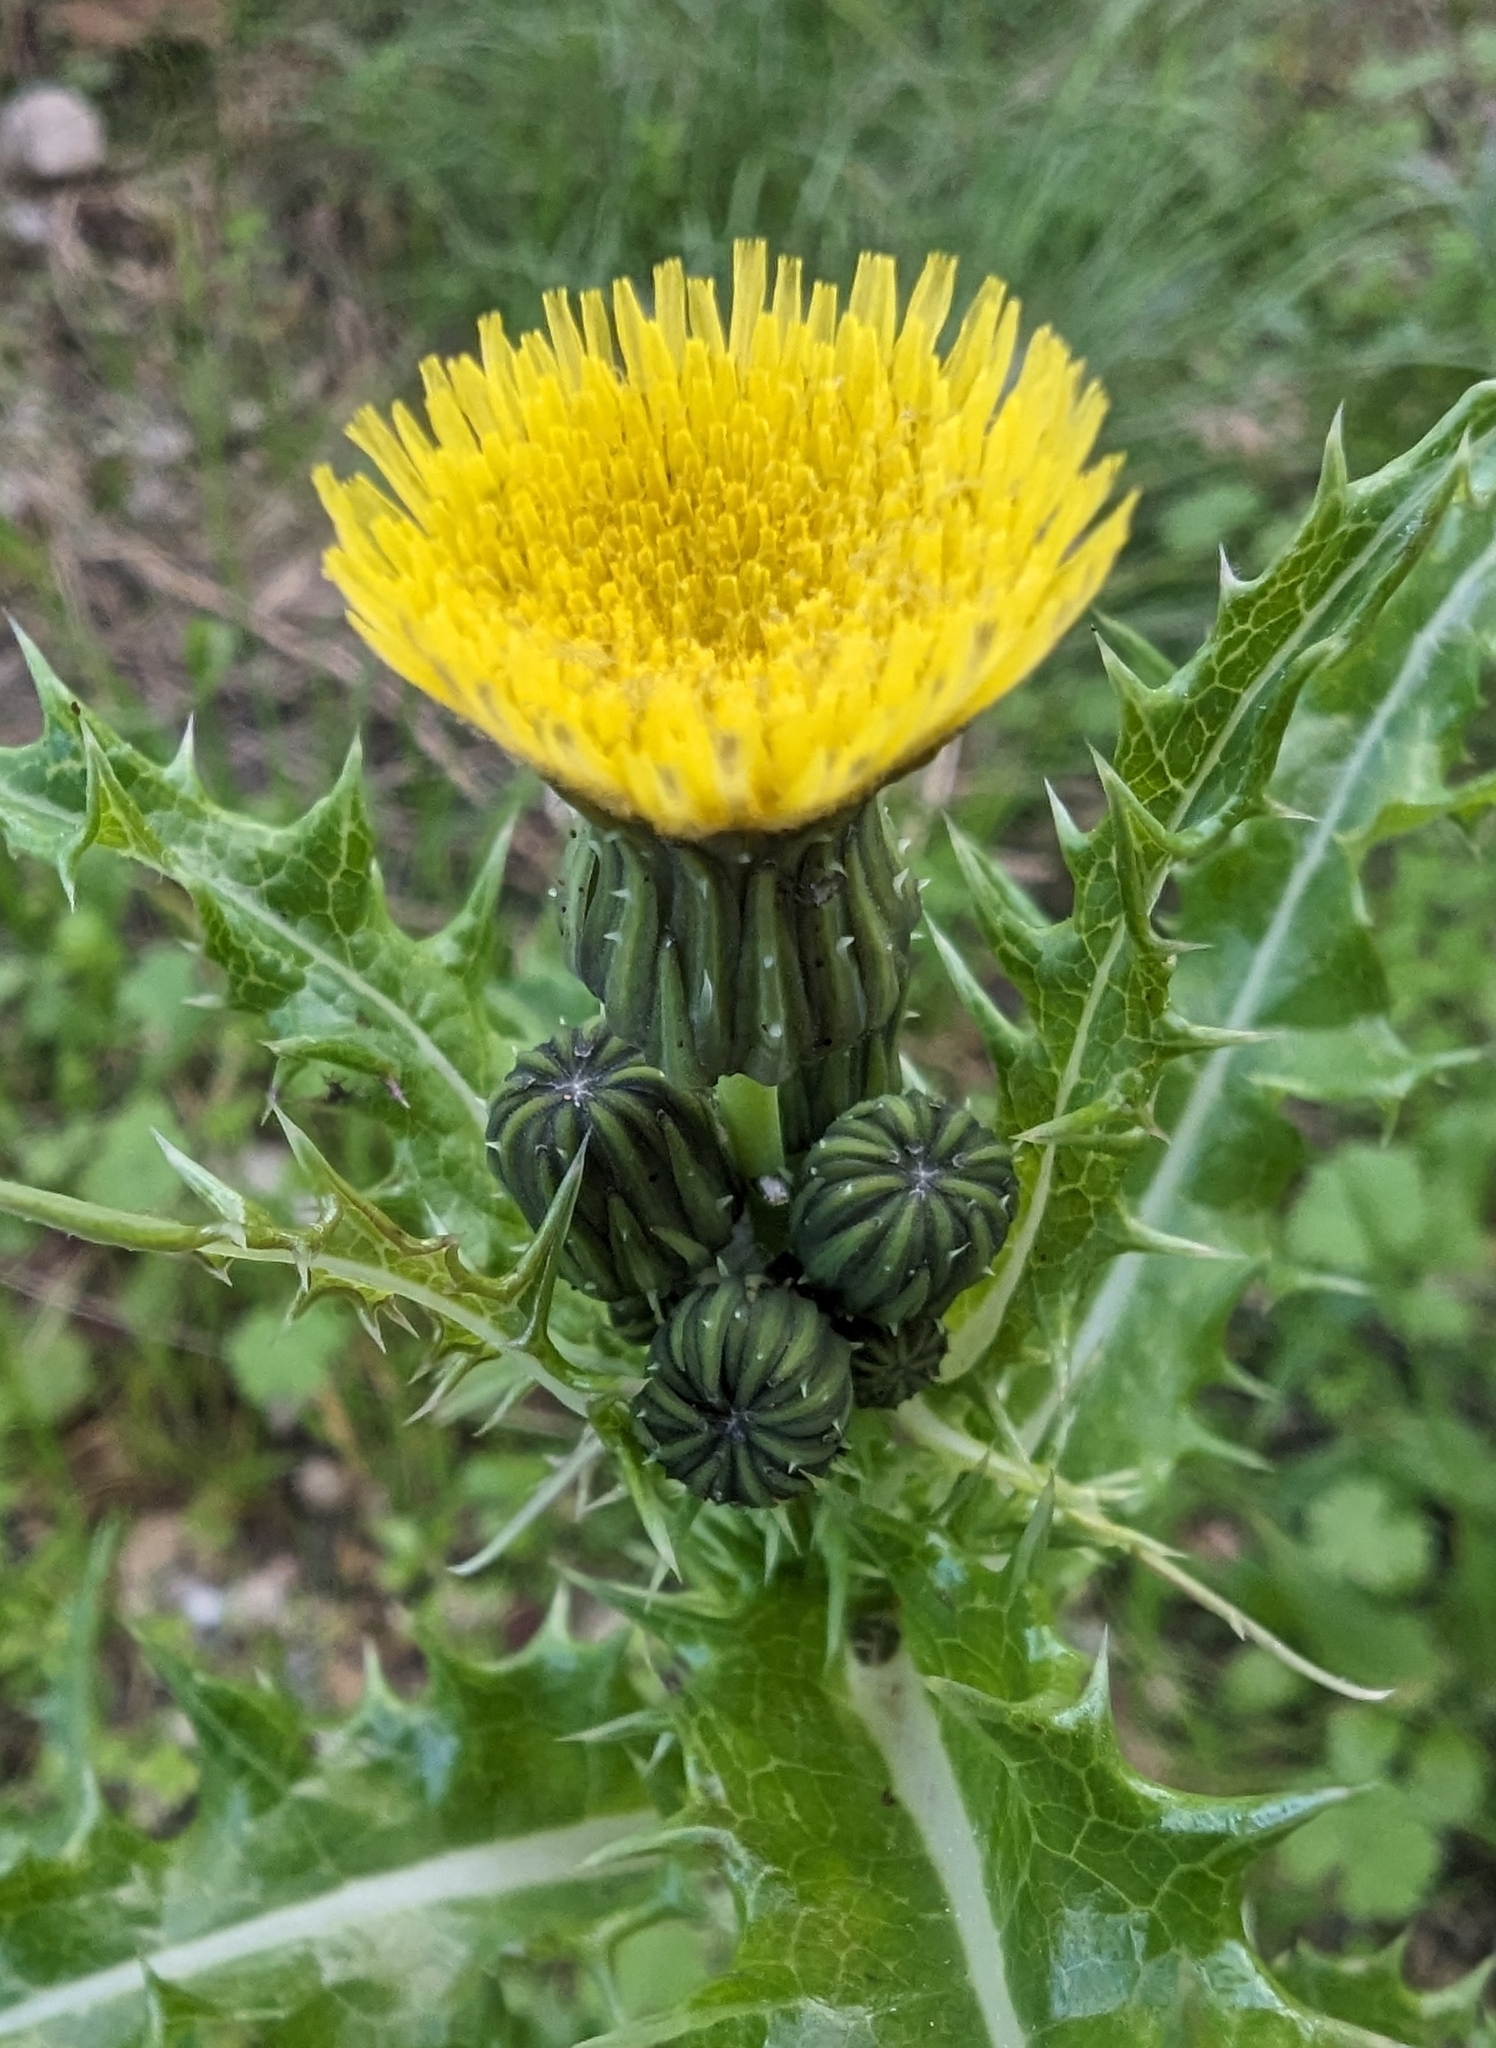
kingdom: Plantae
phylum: Tracheophyta
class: Magnoliopsida
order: Asterales
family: Asteraceae
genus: Sonchus
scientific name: Sonchus asper
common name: Prickly sow-thistle
